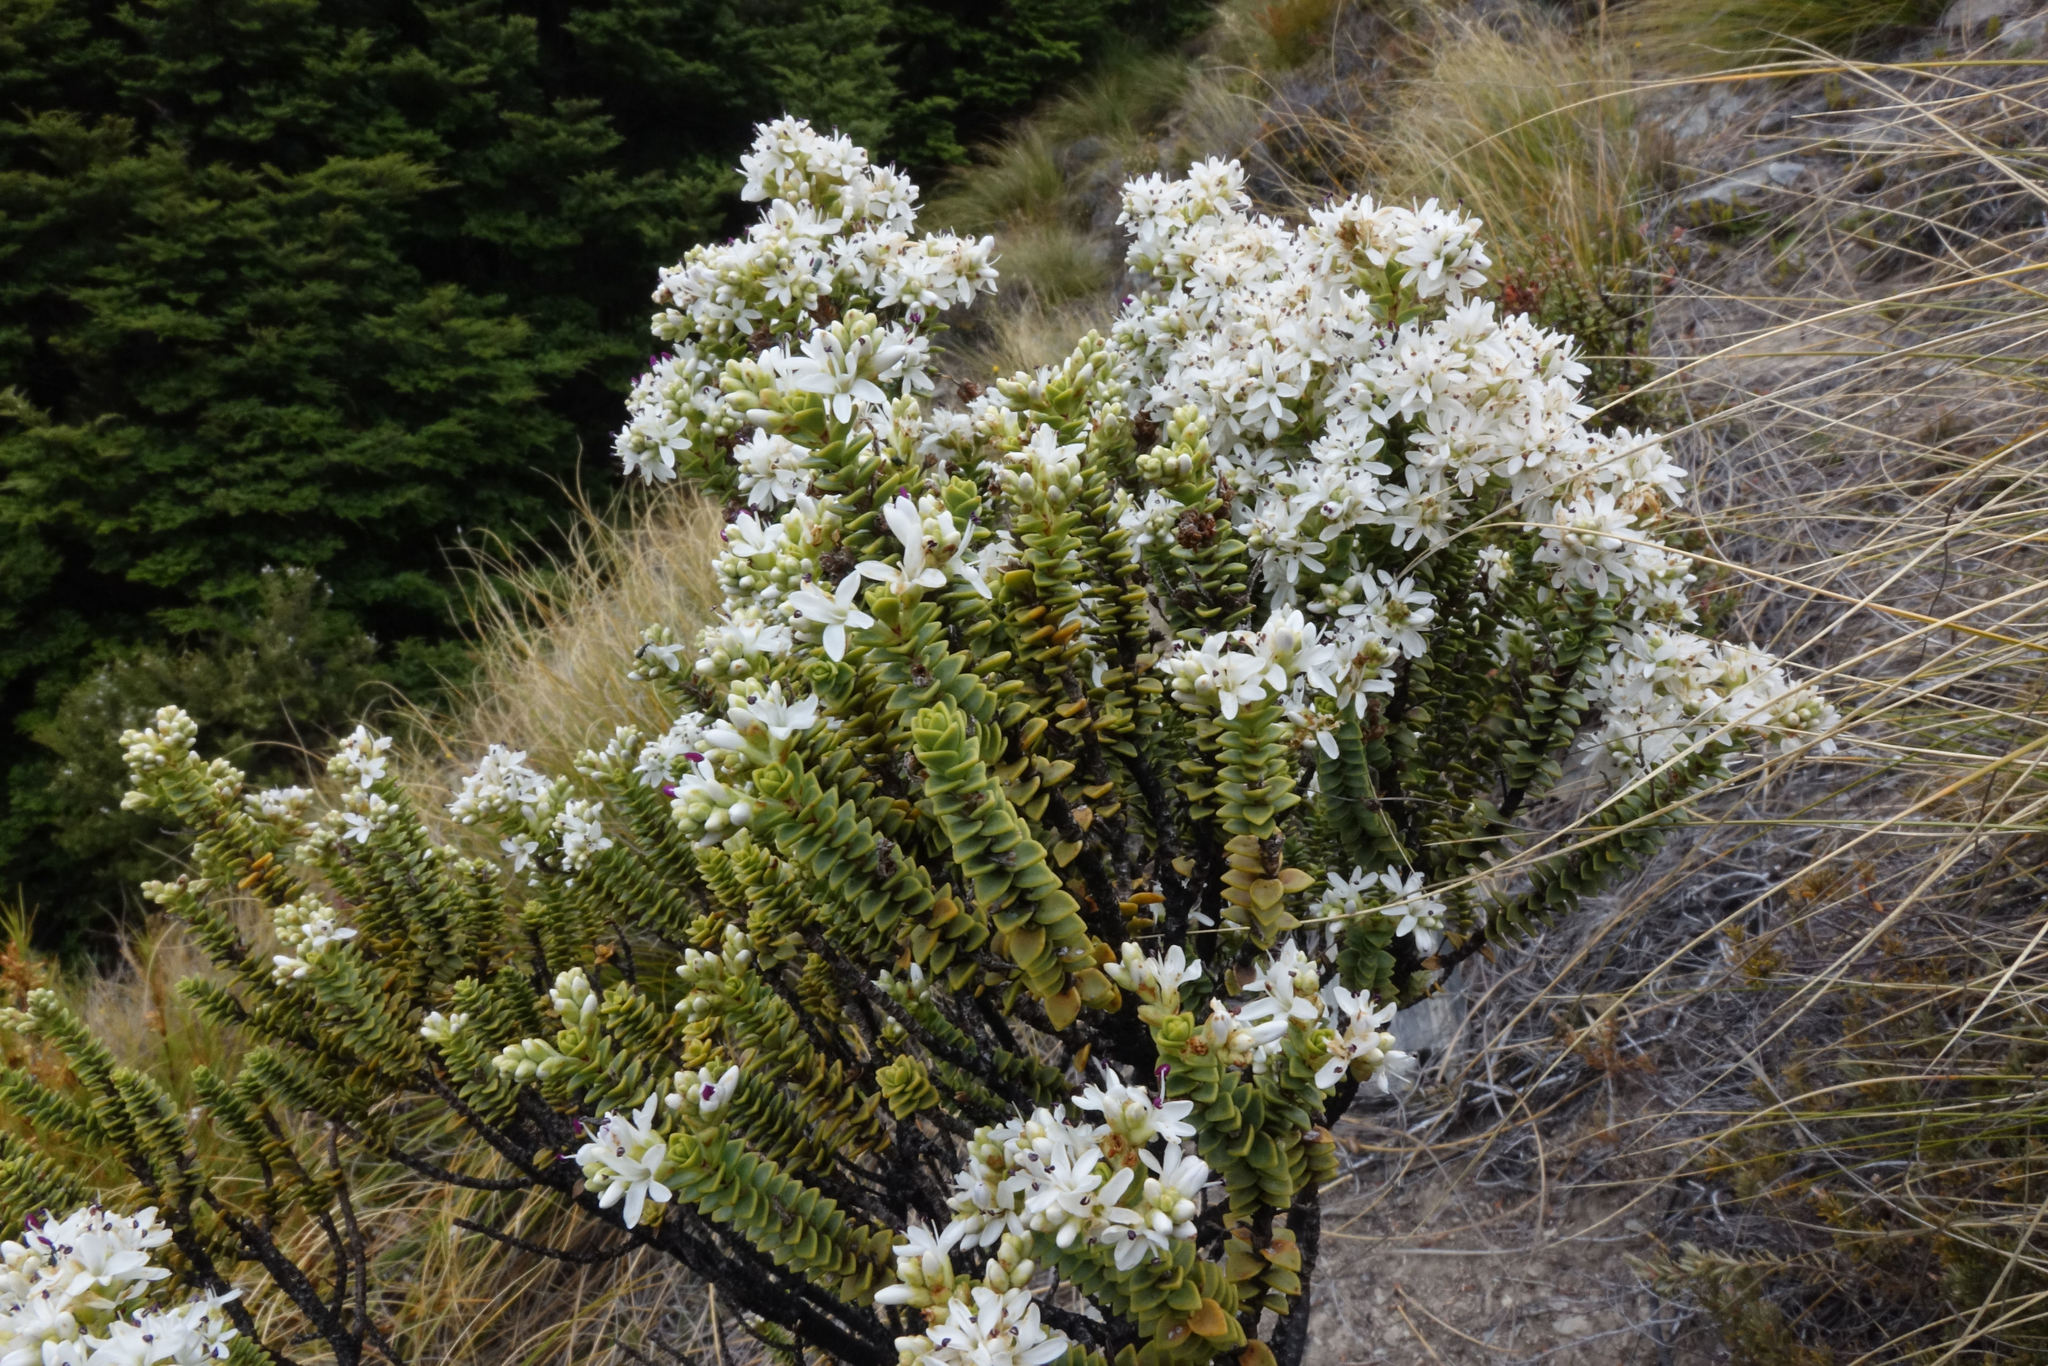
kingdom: Plantae
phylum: Tracheophyta
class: Magnoliopsida
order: Lamiales
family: Plantaginaceae
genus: Veronica
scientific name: Veronica buchananii
